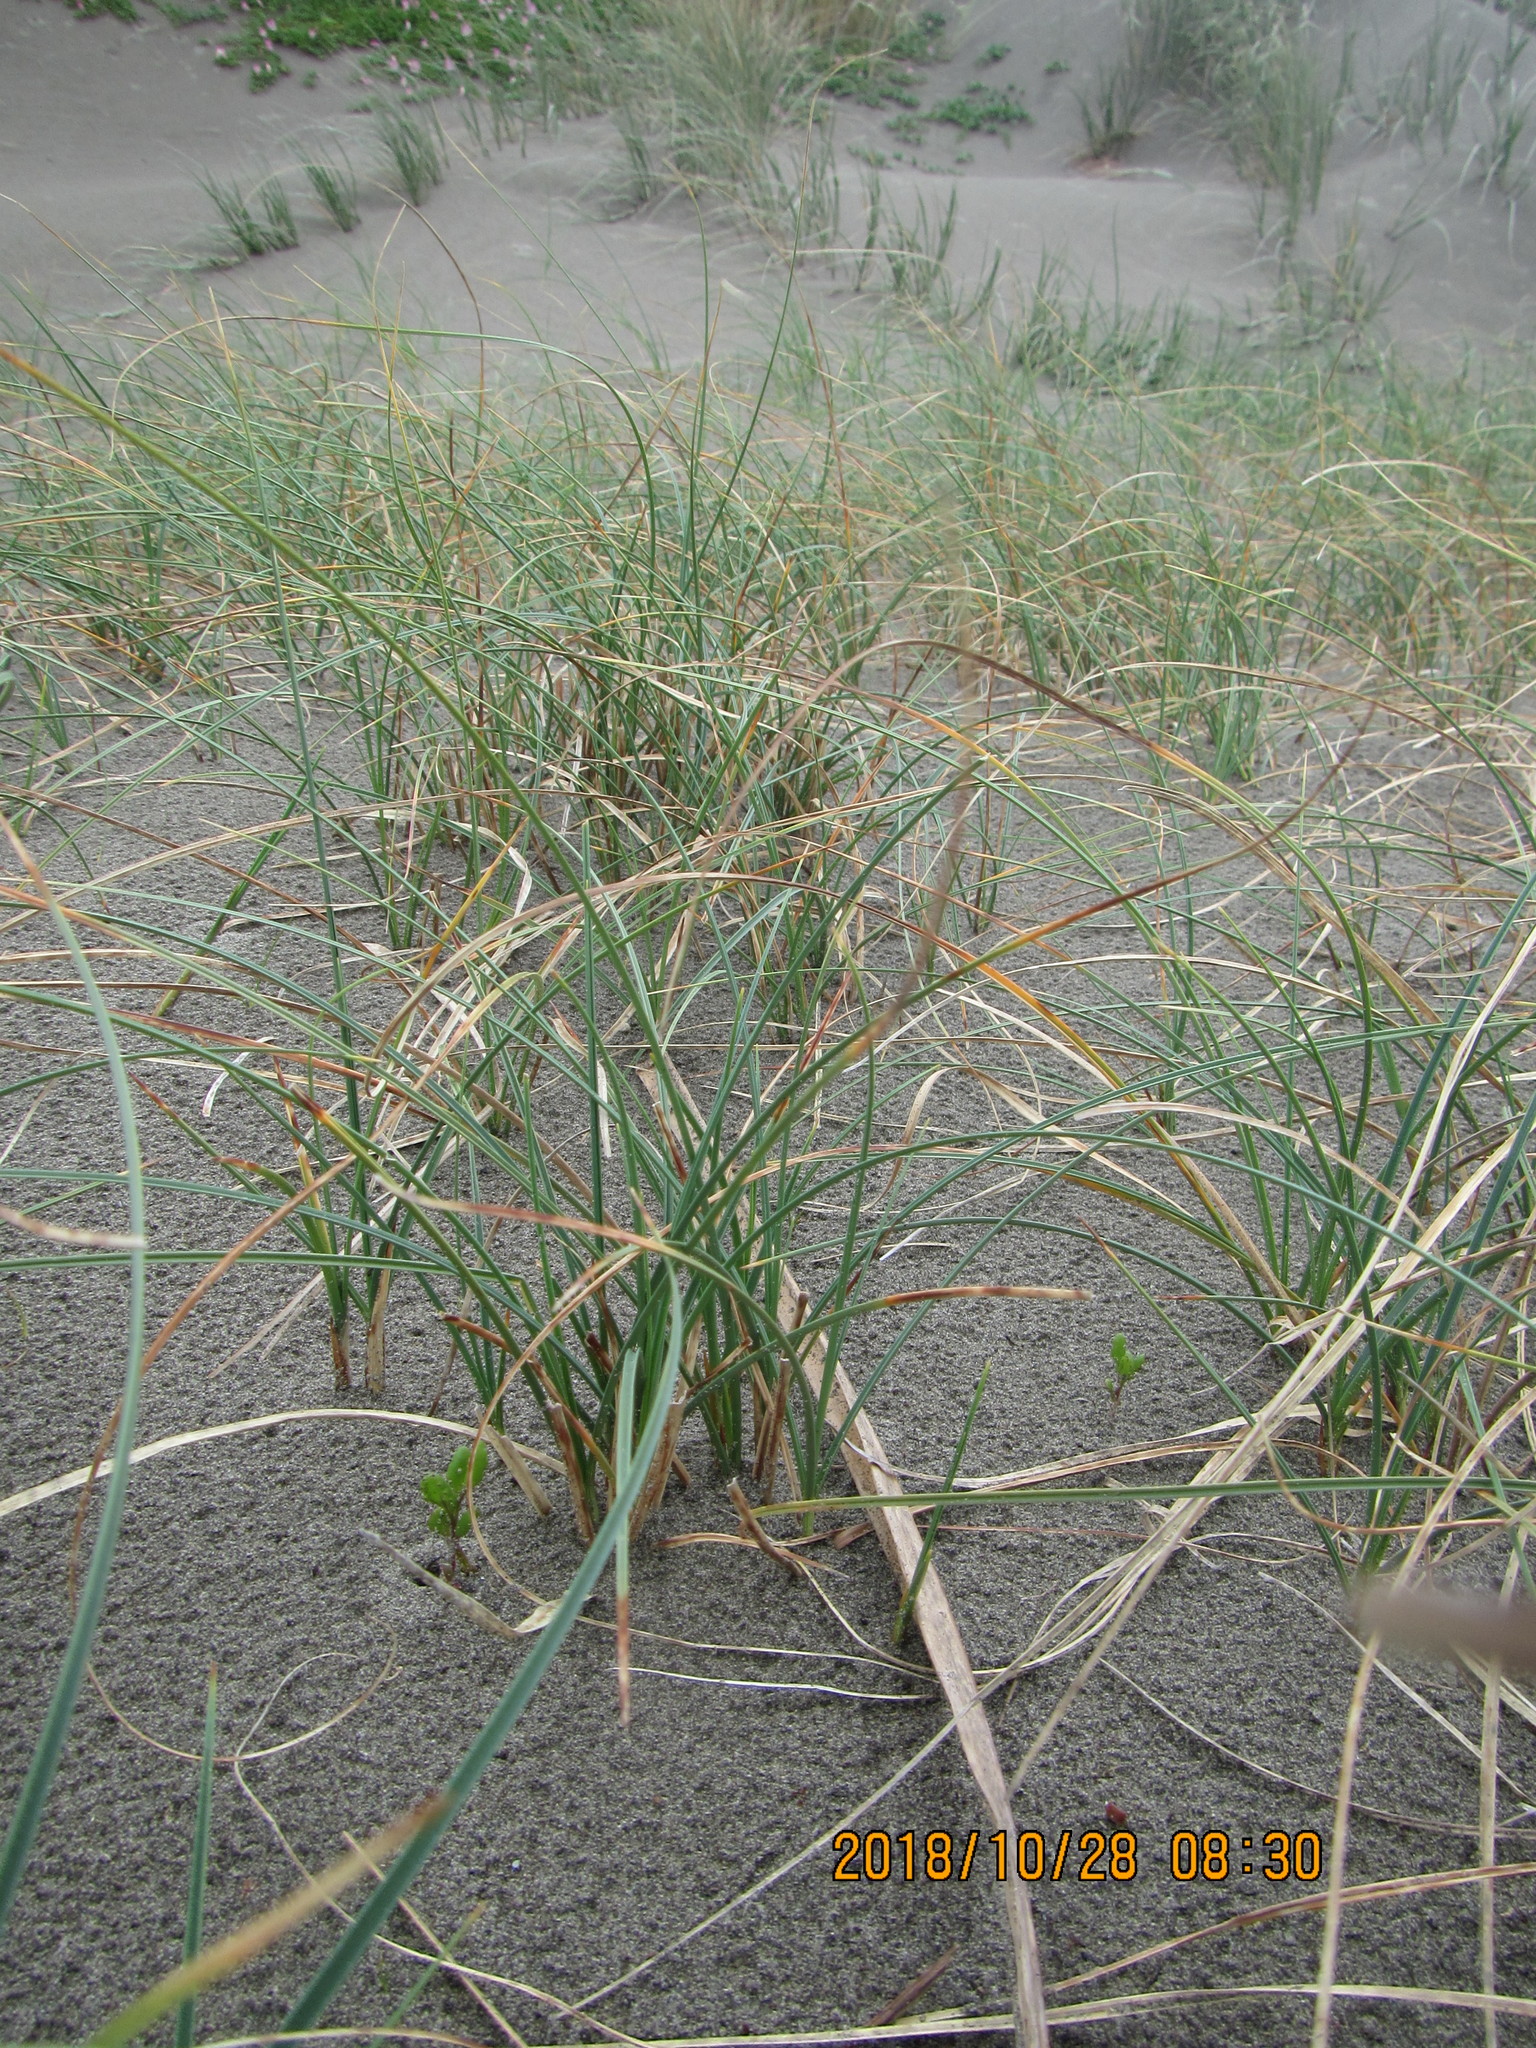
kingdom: Plantae
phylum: Tracheophyta
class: Liliopsida
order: Poales
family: Cyperaceae
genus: Carex
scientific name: Carex pumila
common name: Dwarf sedge
